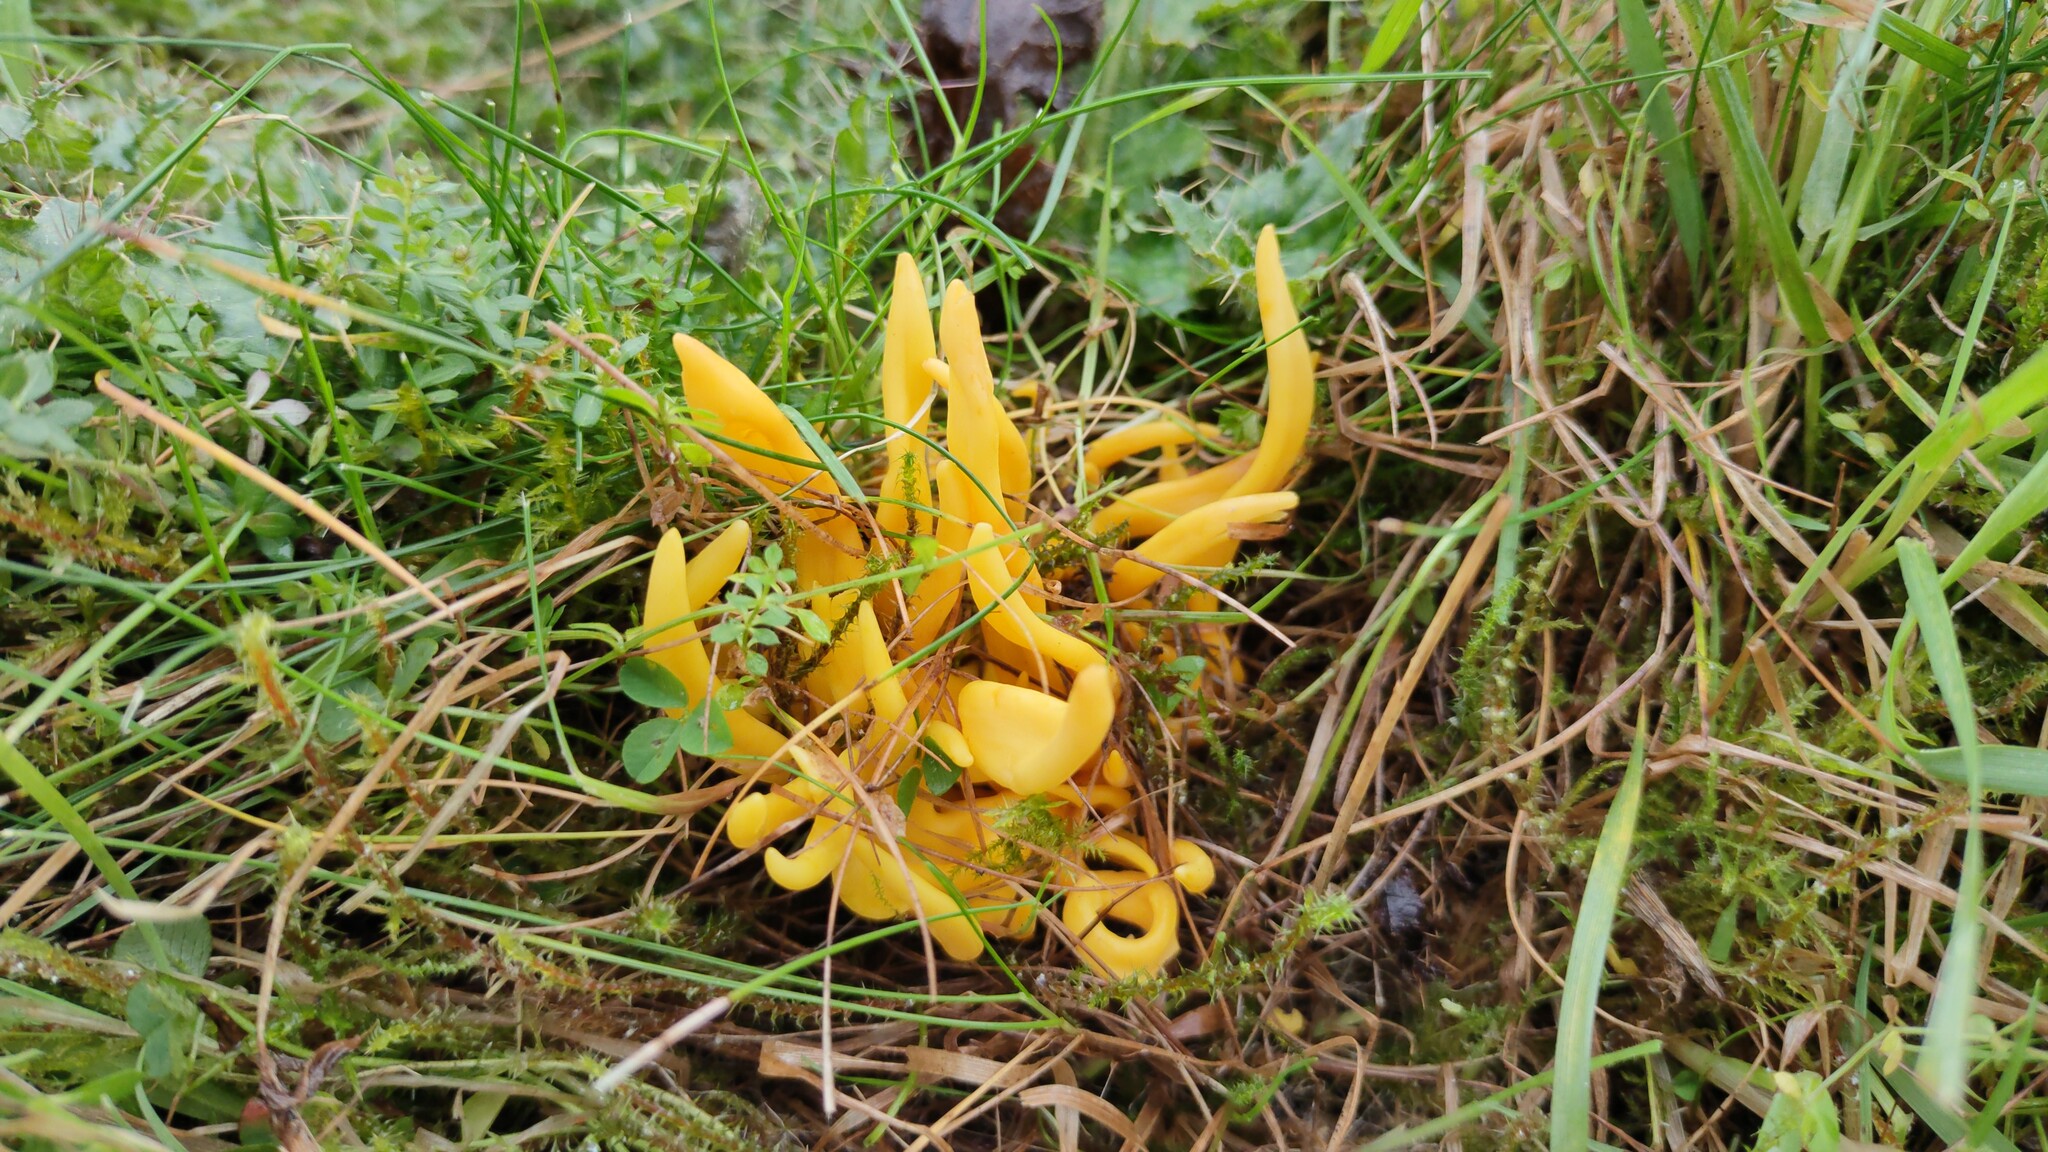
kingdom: Fungi
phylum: Basidiomycota
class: Agaricomycetes
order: Agaricales
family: Clavariaceae
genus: Clavulinopsis
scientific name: Clavulinopsis fusiformis
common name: Golden spindles
